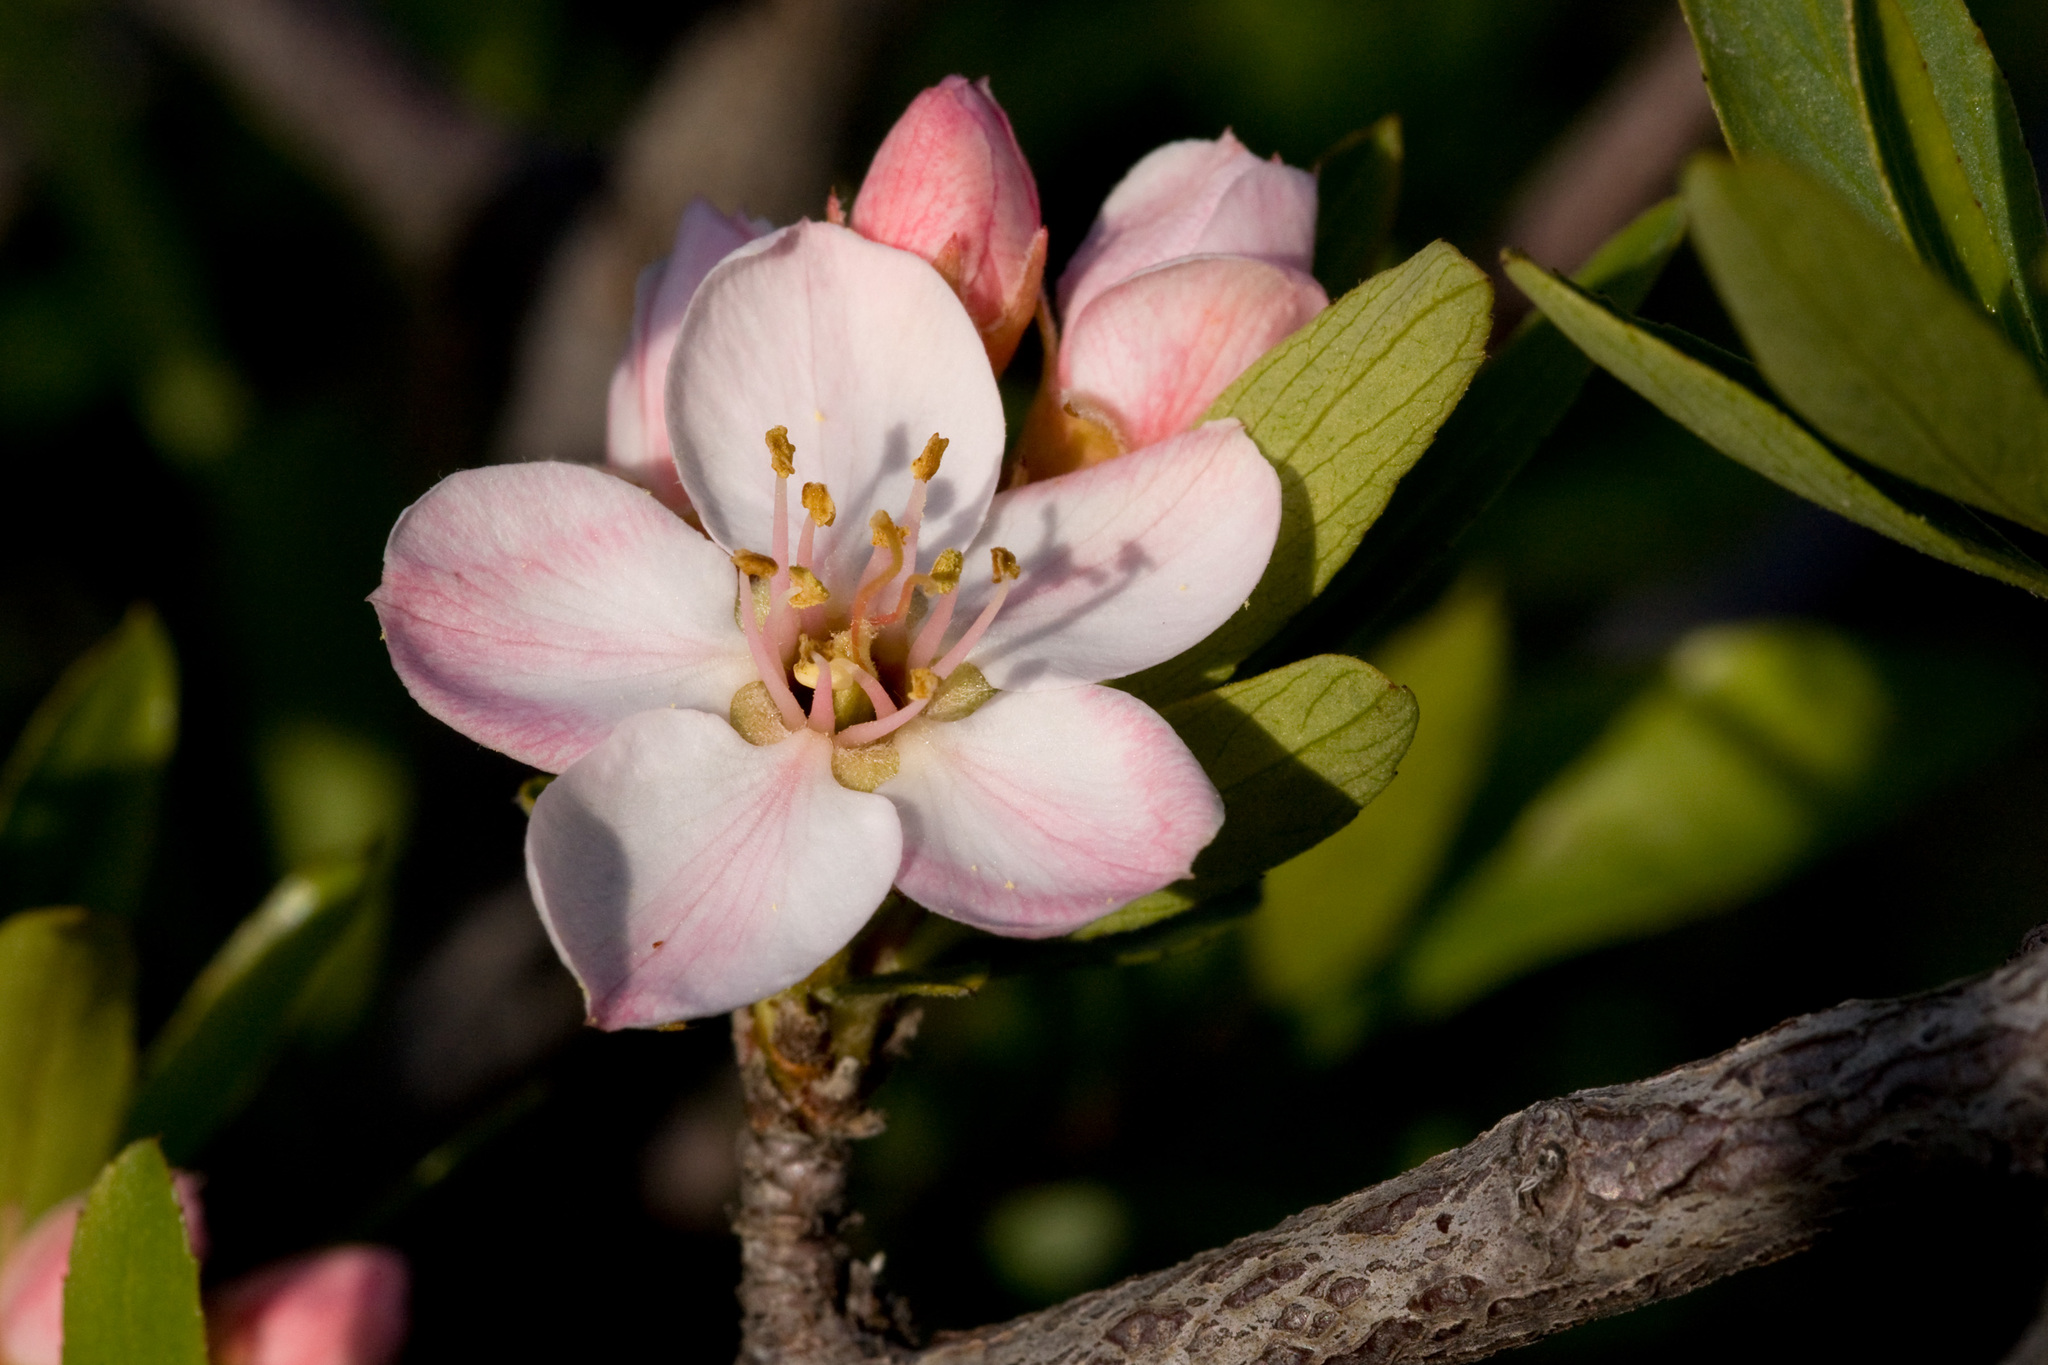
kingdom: Plantae
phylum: Tracheophyta
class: Magnoliopsida
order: Rosales
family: Rosaceae
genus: Amelanchier
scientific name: Amelanchier ramosissima
